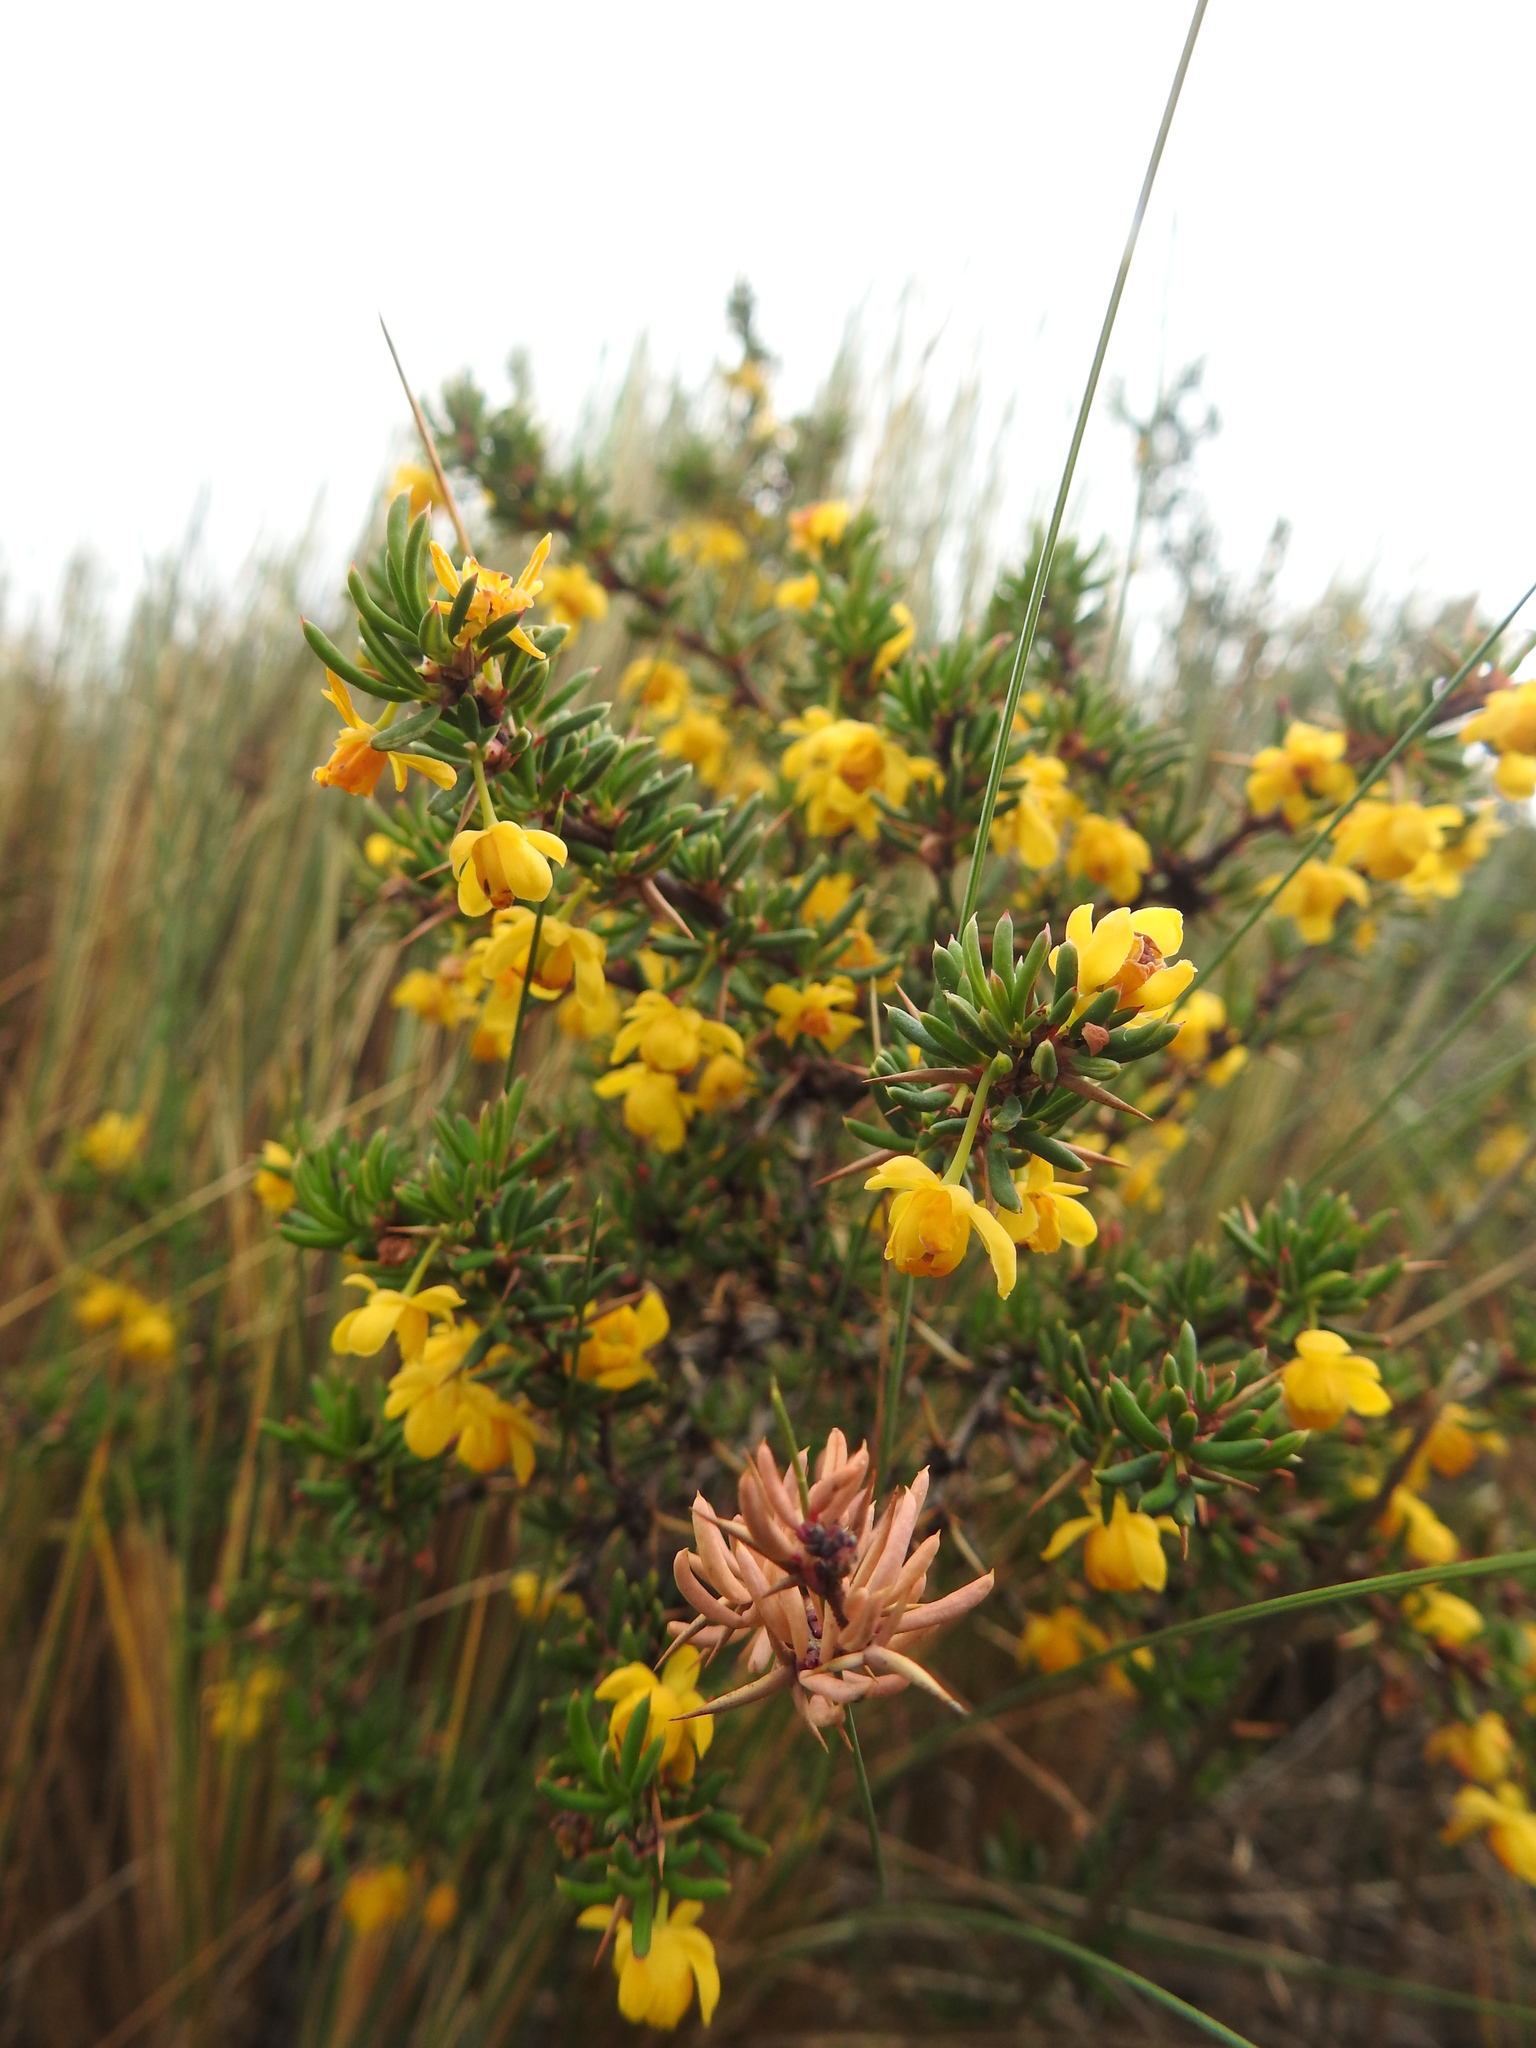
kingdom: Plantae
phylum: Tracheophyta
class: Magnoliopsida
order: Ranunculales
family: Berberidaceae
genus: Berberis
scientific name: Berberis empetrifolia
